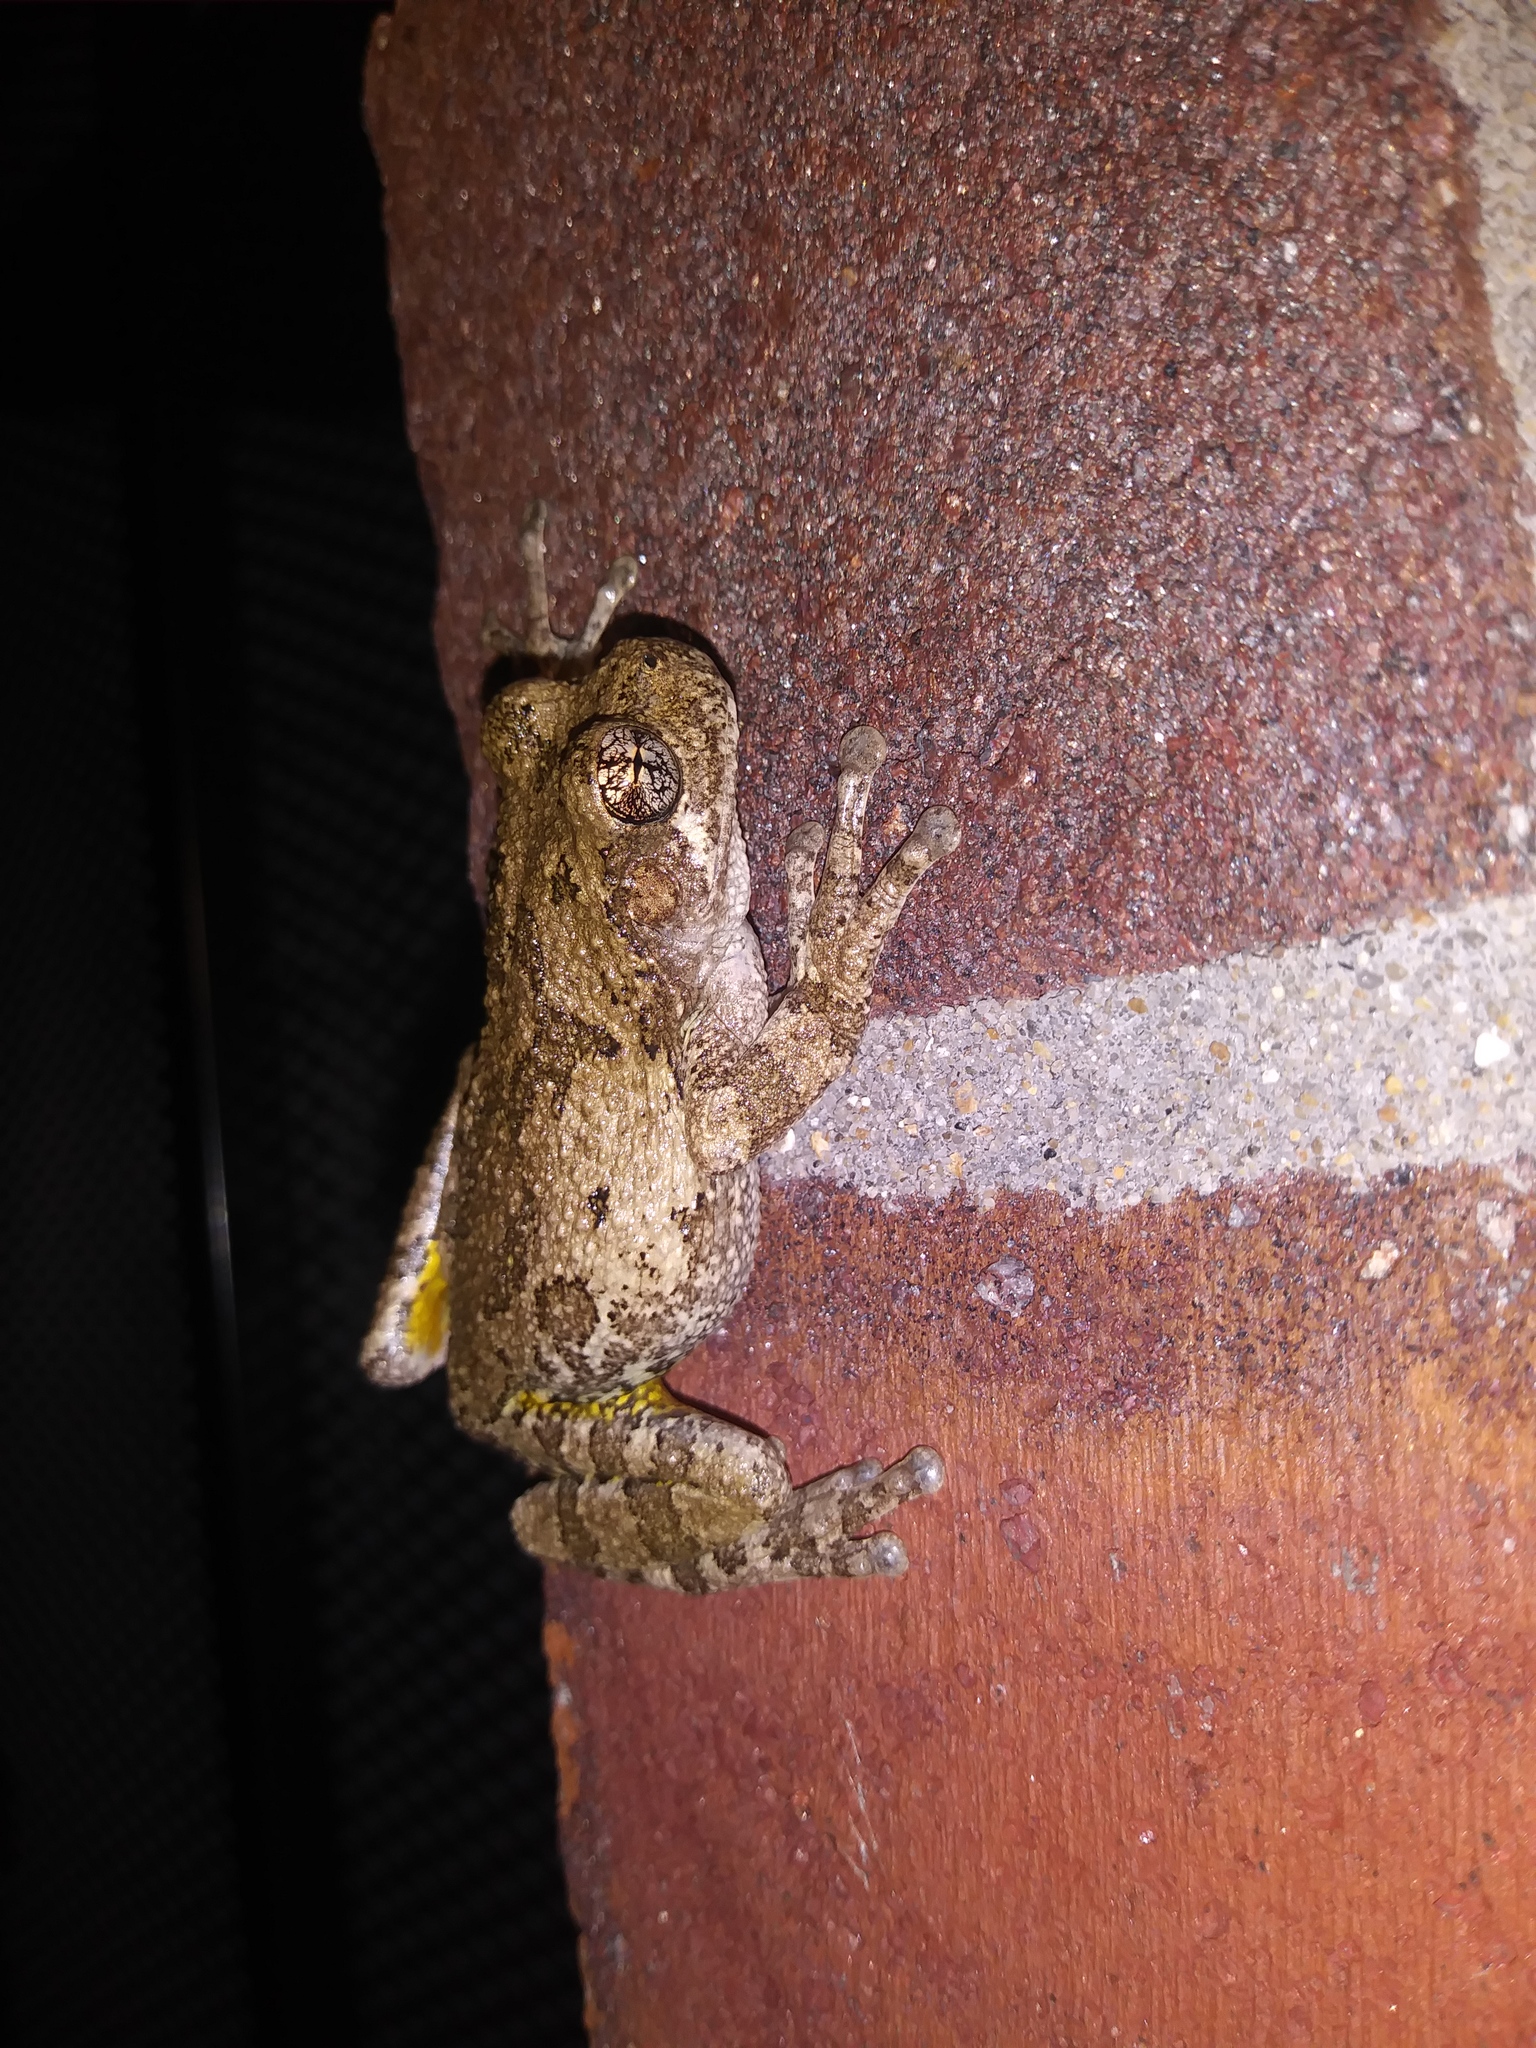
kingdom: Animalia
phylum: Chordata
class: Amphibia
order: Anura
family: Hylidae
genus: Dryophytes
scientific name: Dryophytes chrysoscelis
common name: Cope's gray treefrog
